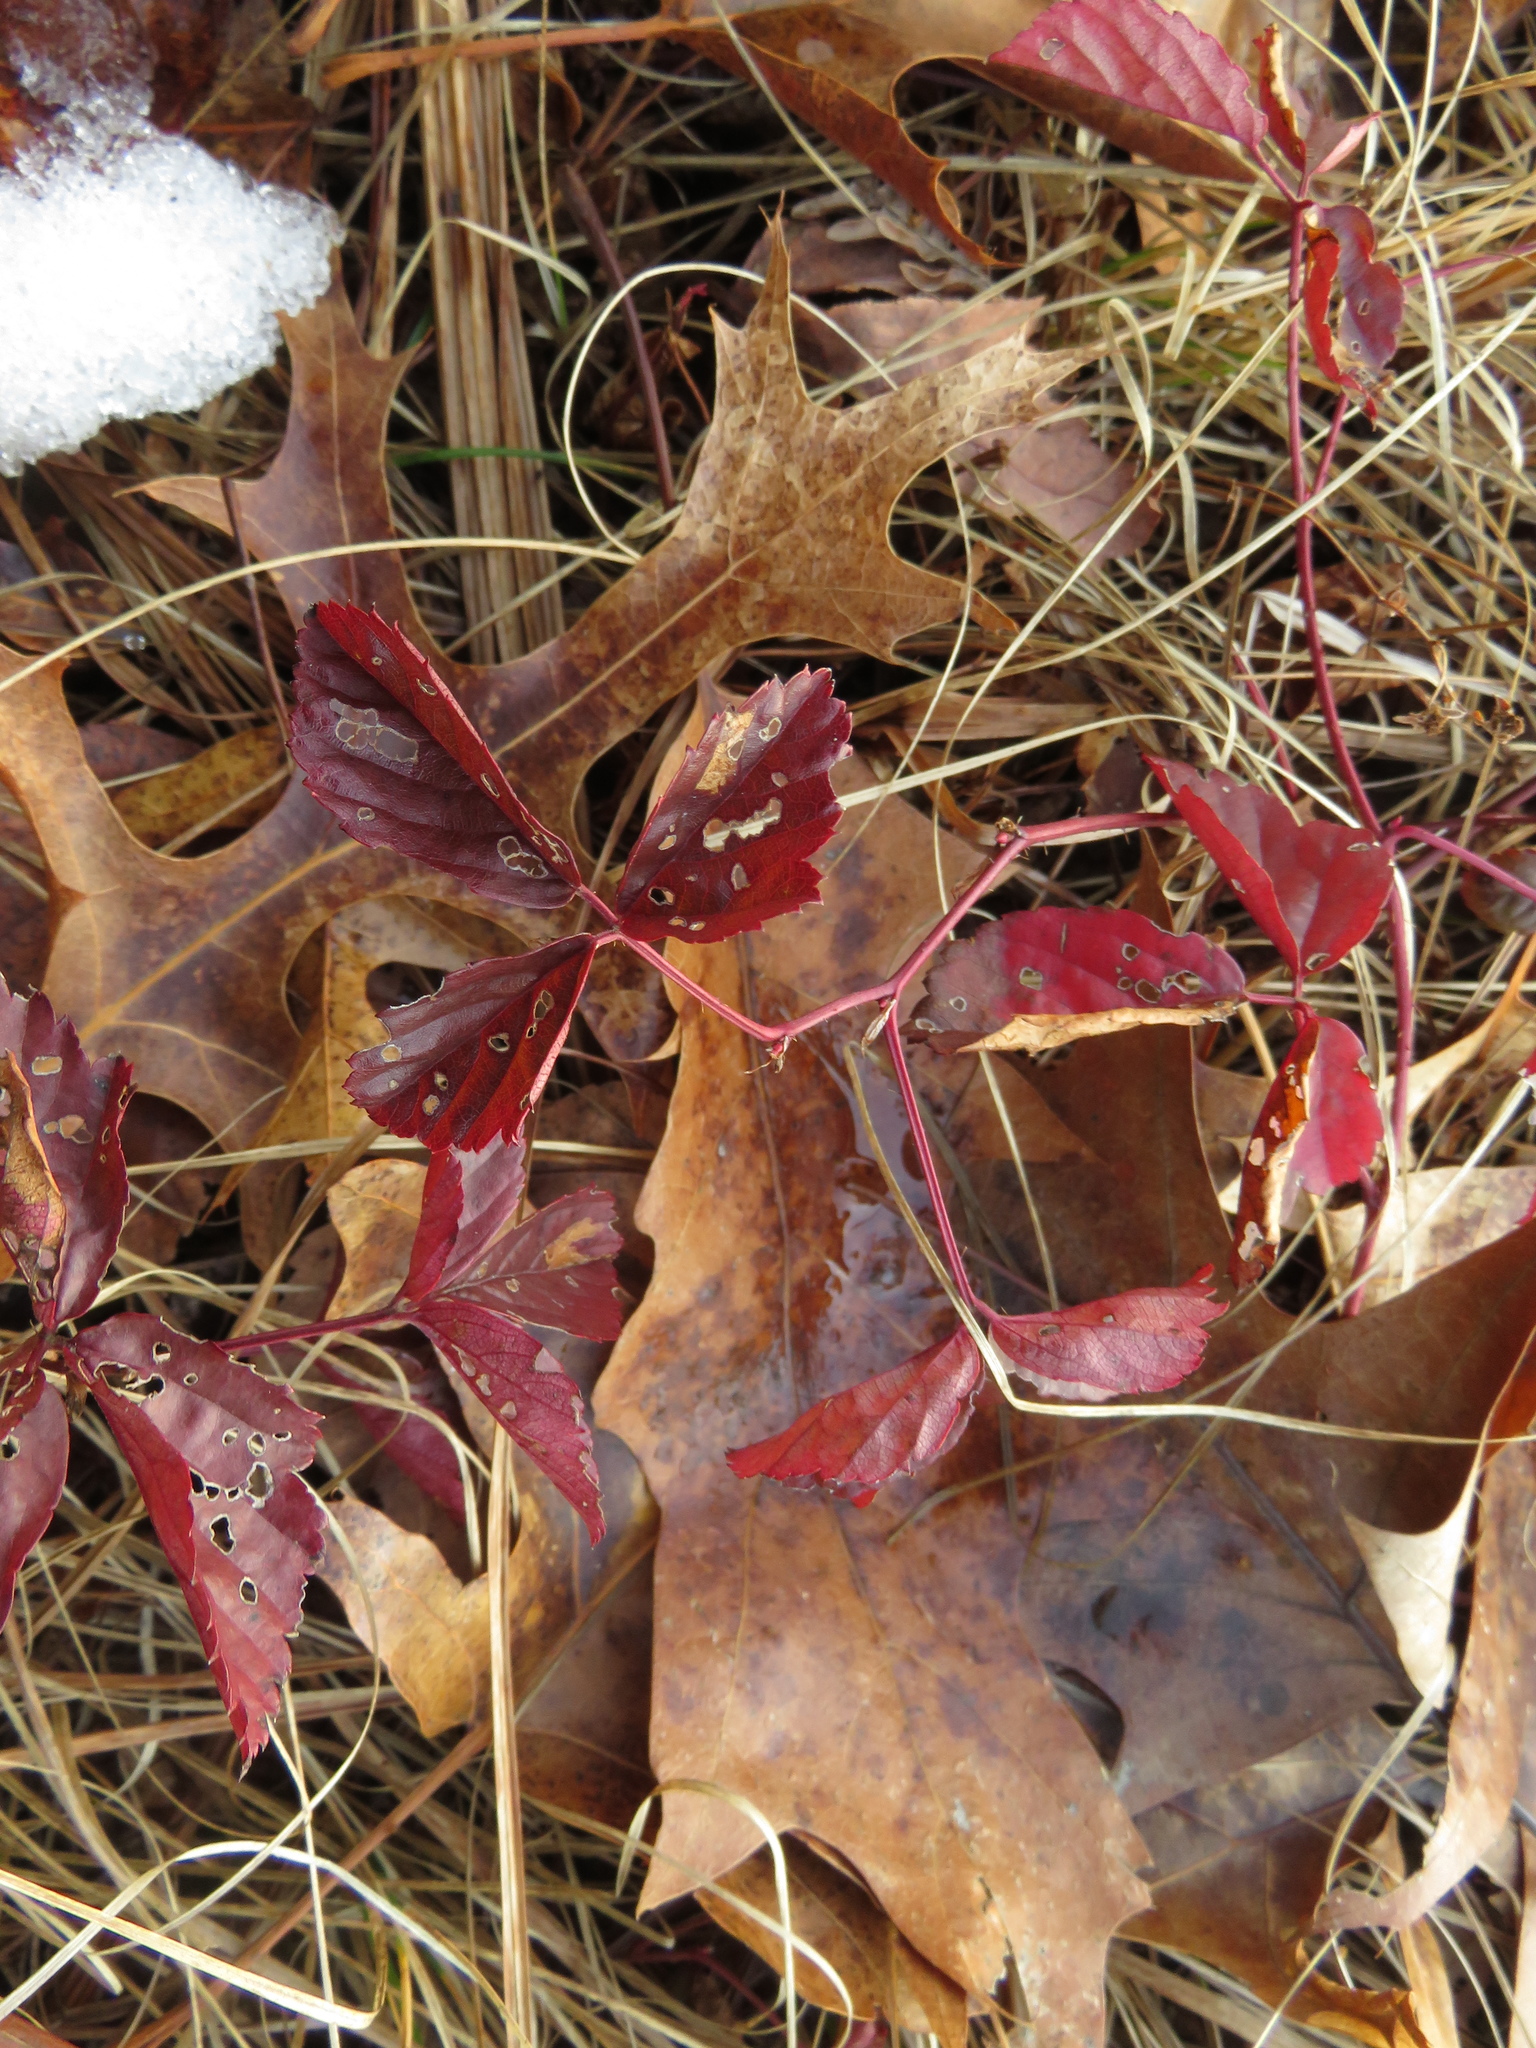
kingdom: Plantae
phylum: Tracheophyta
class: Magnoliopsida
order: Rosales
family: Rosaceae
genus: Rubus
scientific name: Rubus hispidus
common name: Running blackberry
